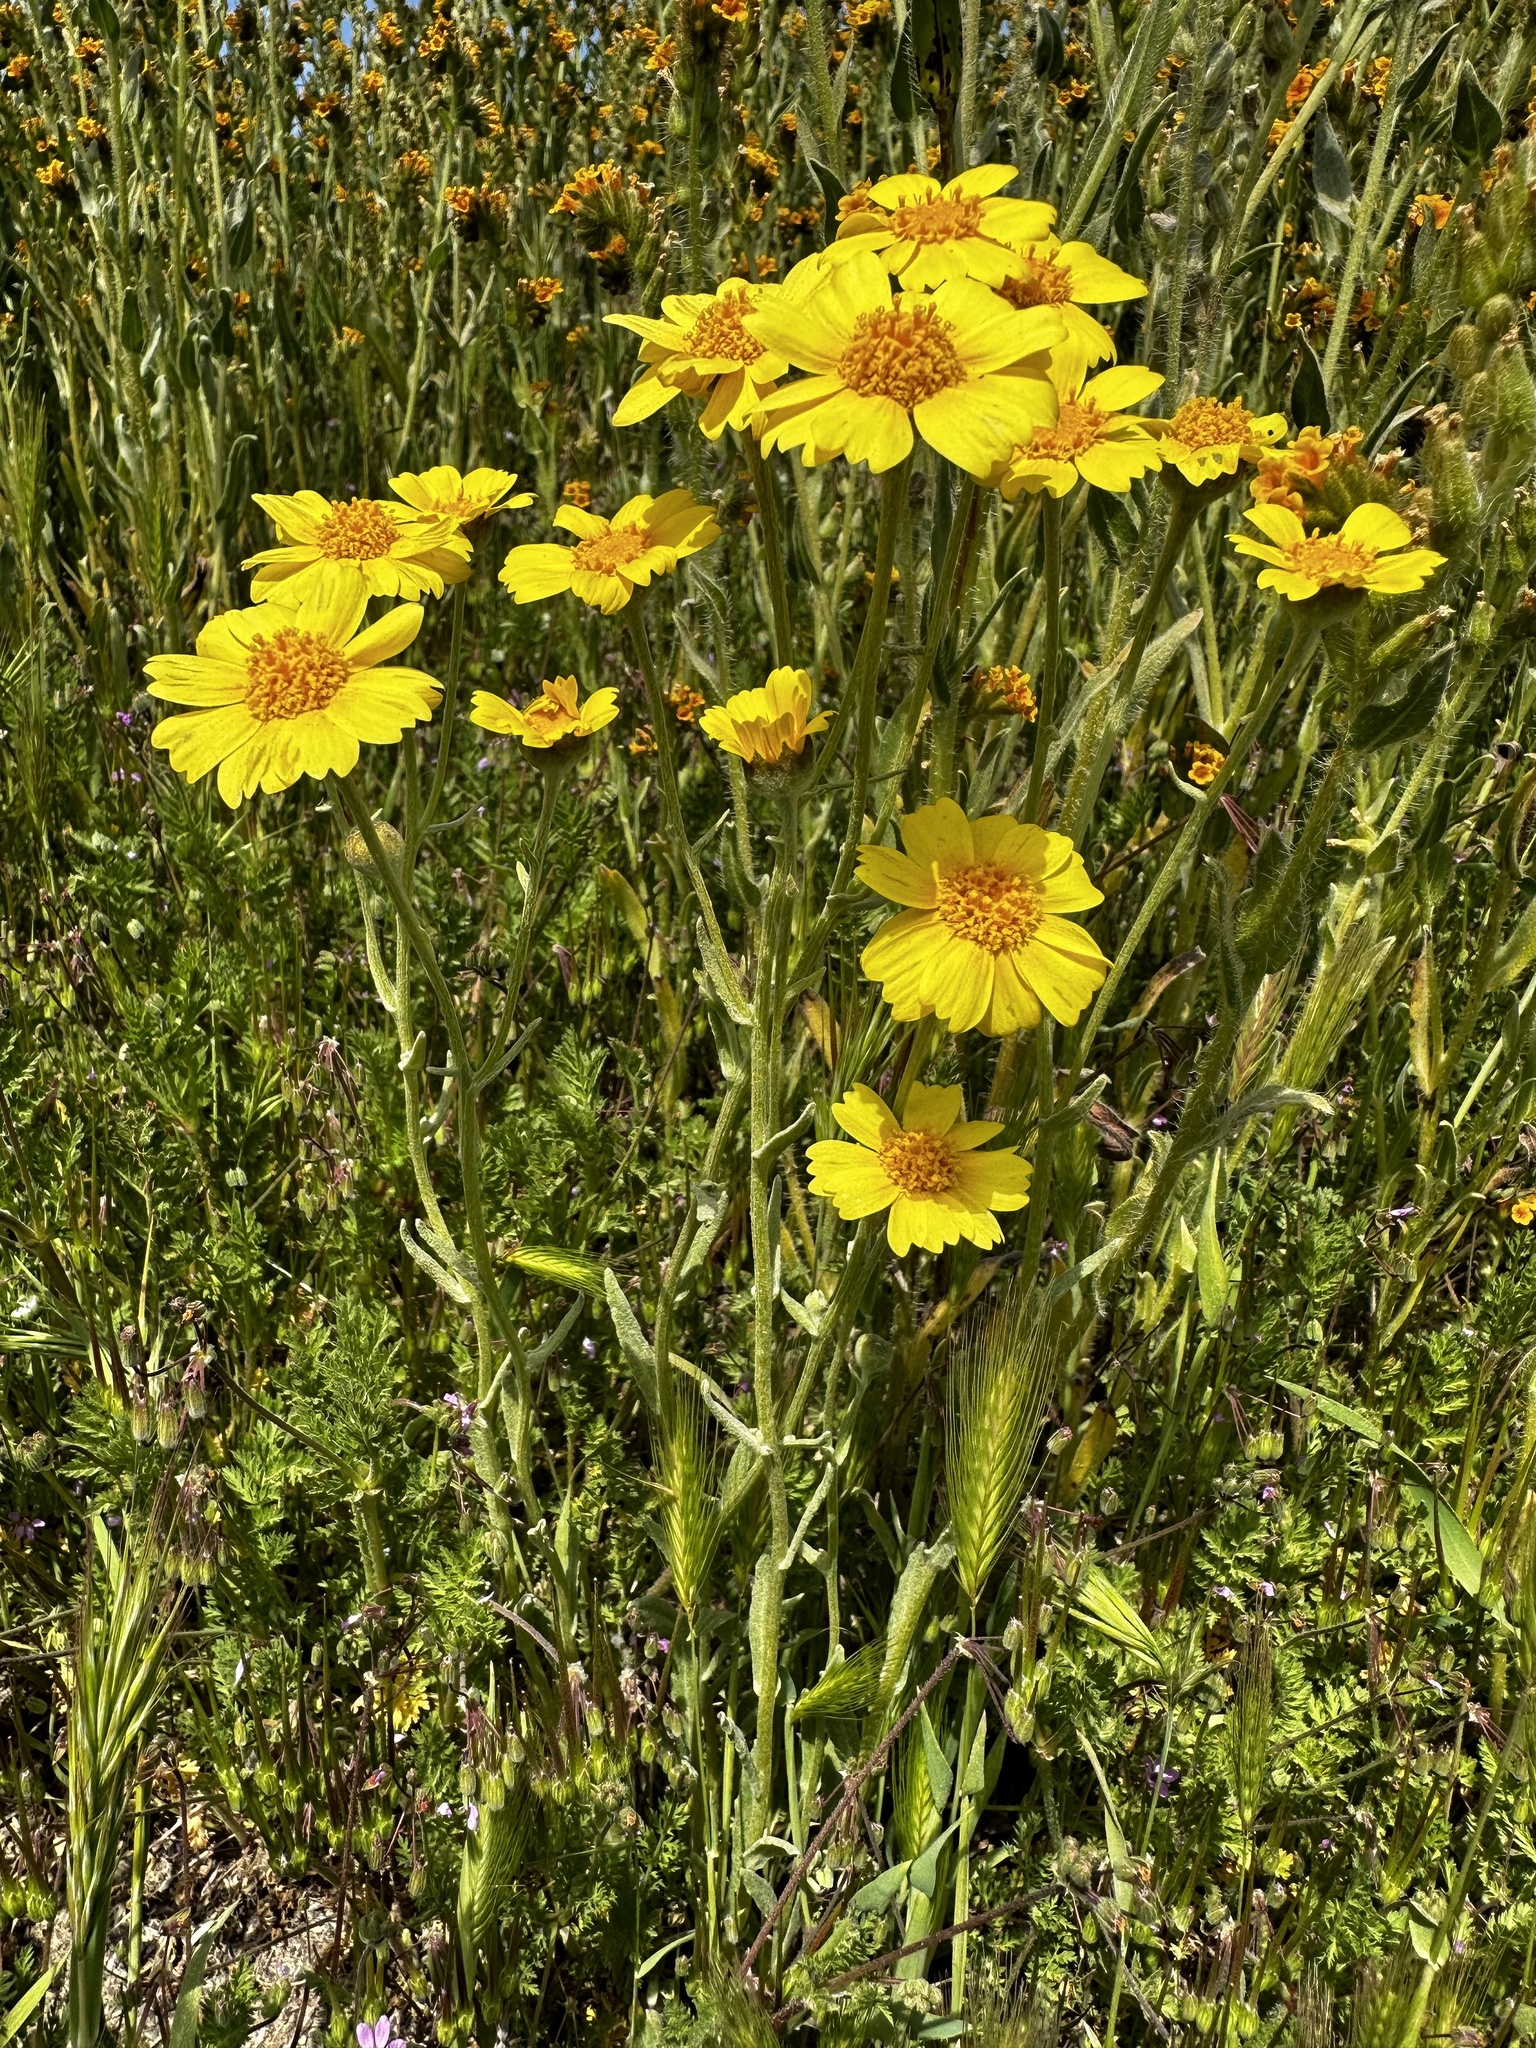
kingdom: Plantae
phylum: Tracheophyta
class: Magnoliopsida
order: Asterales
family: Asteraceae
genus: Monolopia
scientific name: Monolopia lanceolata
